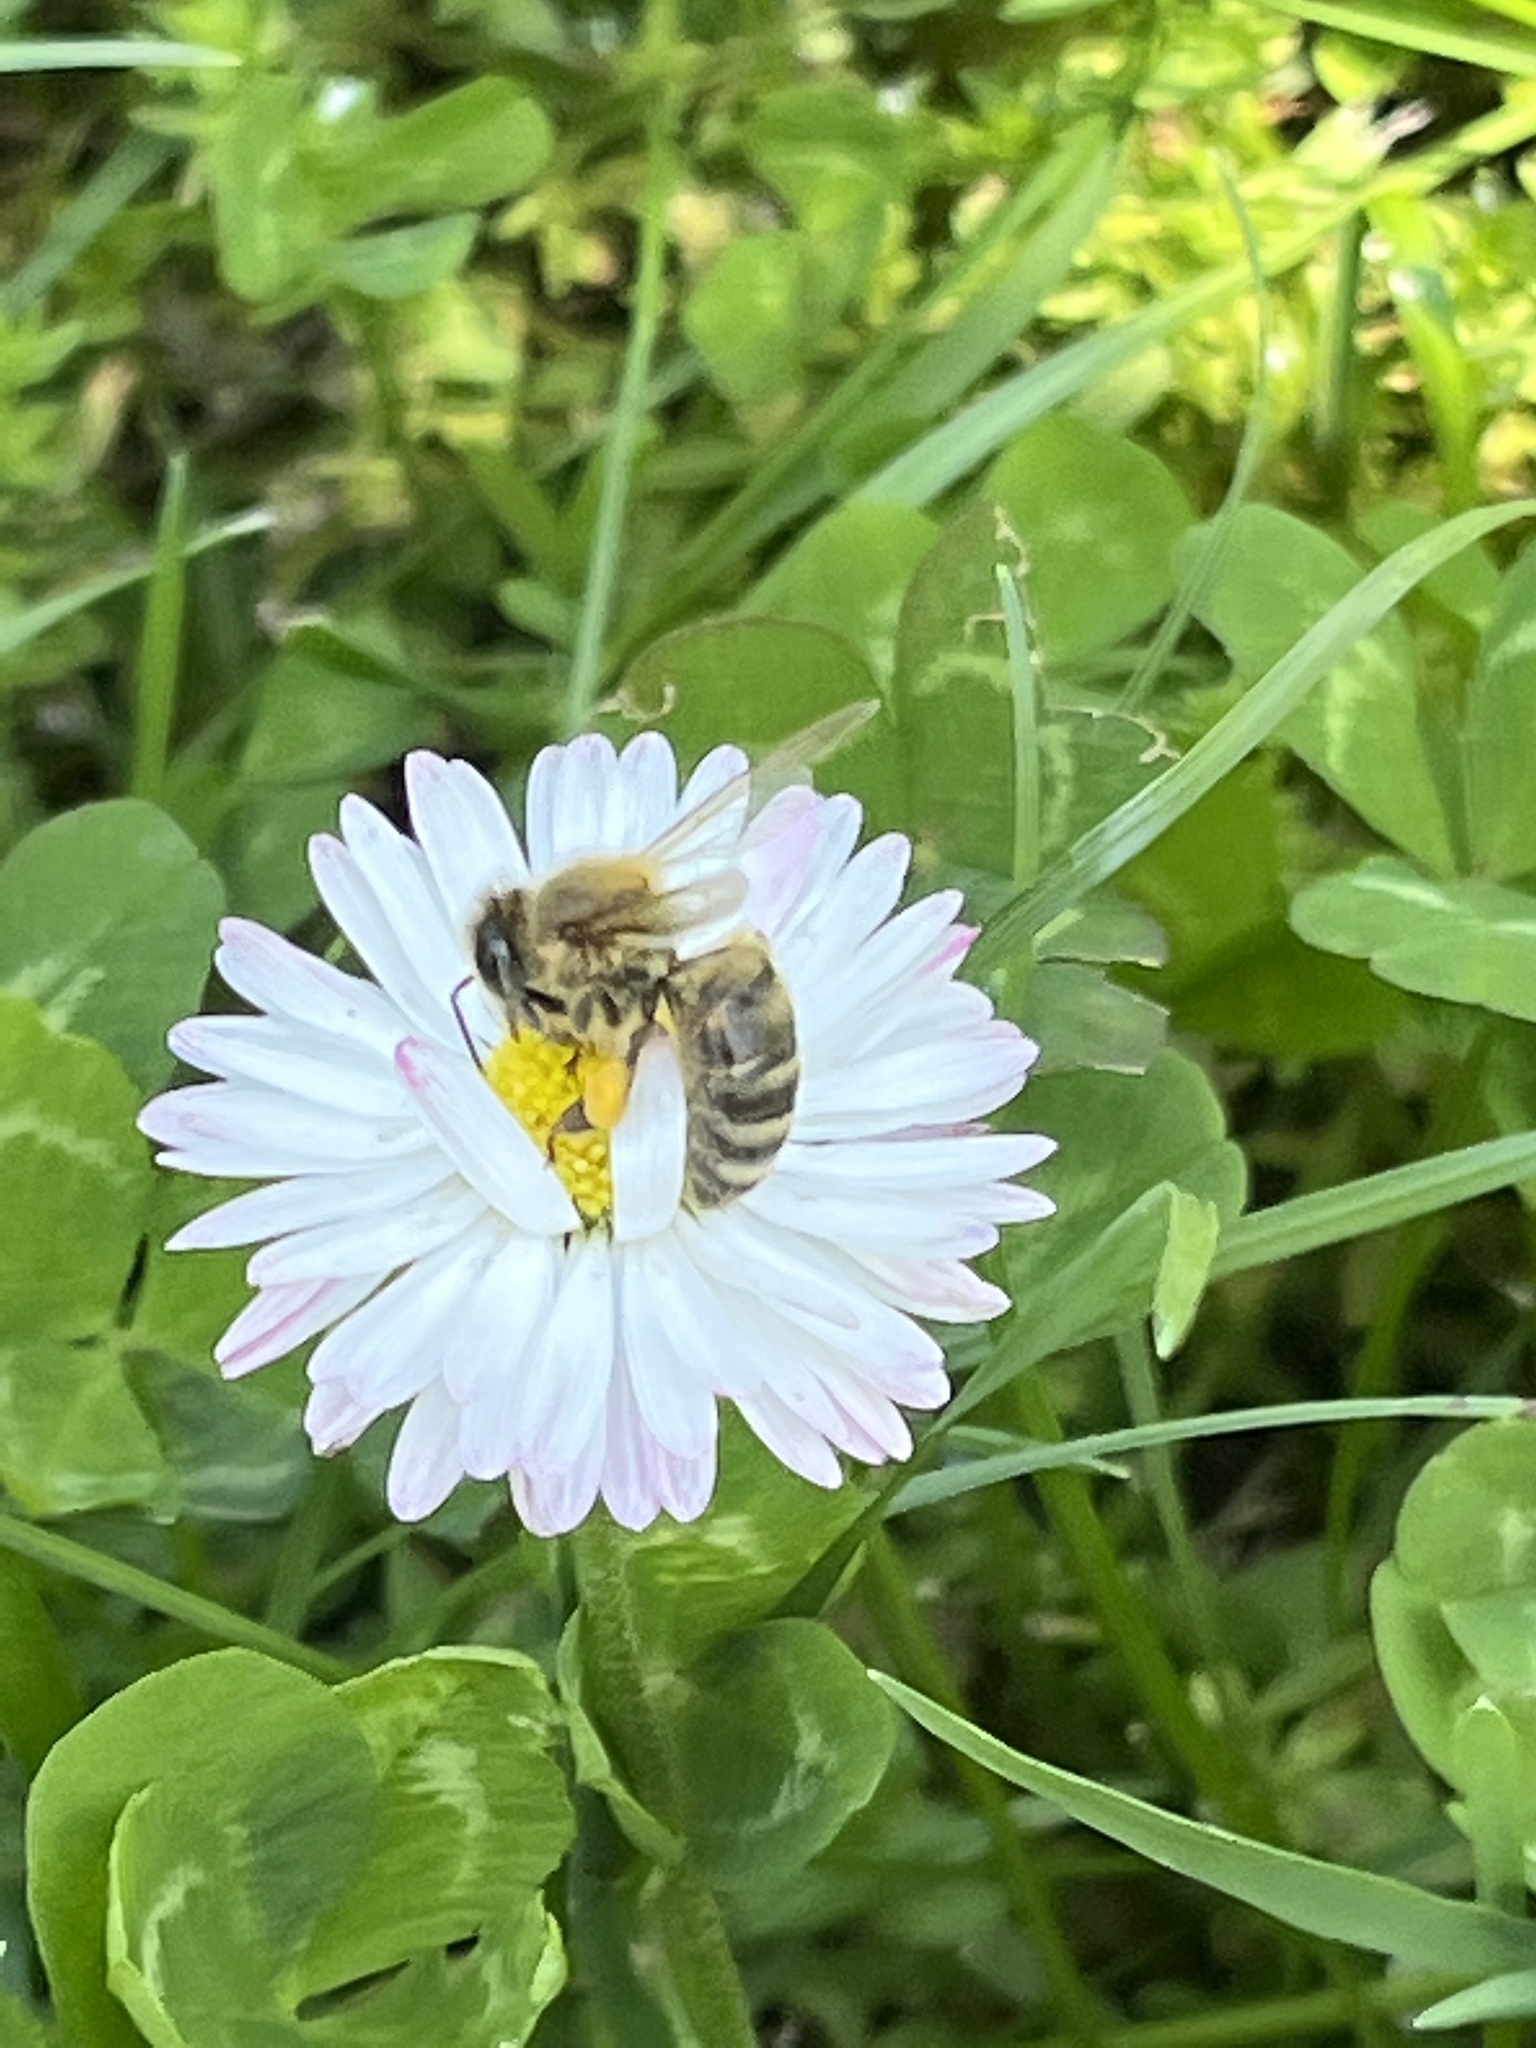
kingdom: Animalia
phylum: Arthropoda
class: Insecta
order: Hymenoptera
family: Apidae
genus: Apis
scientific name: Apis mellifera
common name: Honey bee
